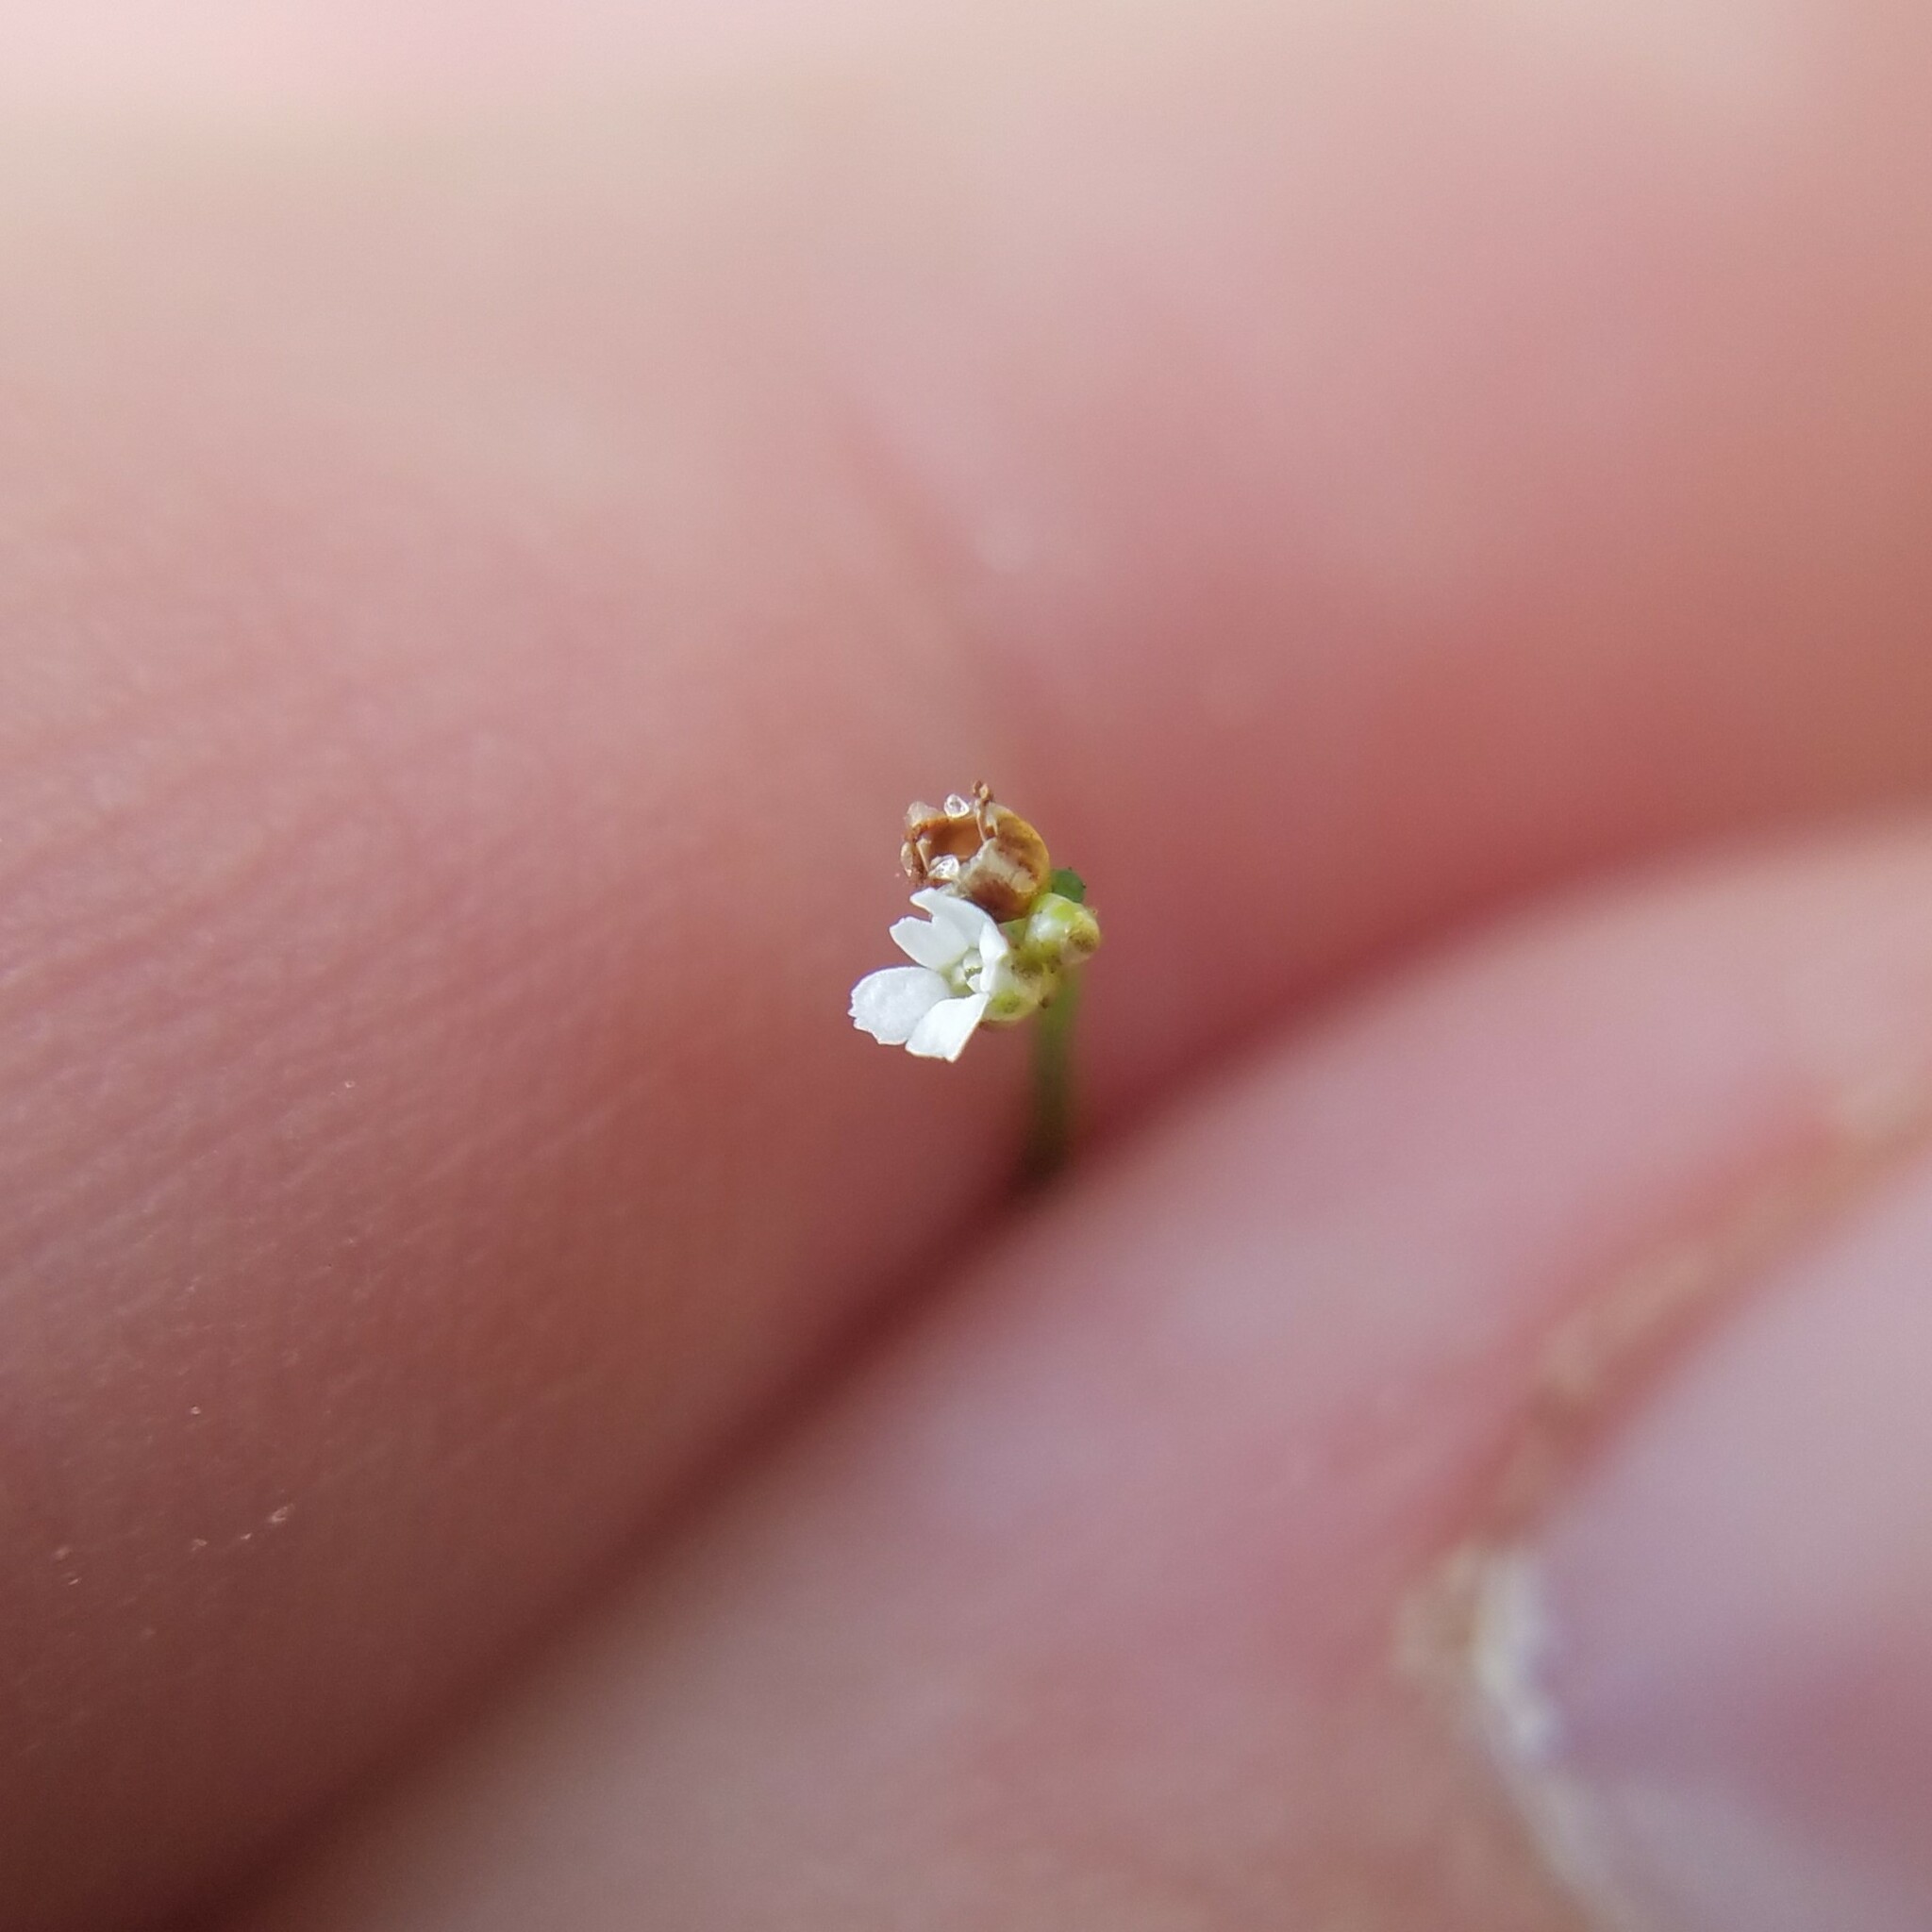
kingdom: Plantae
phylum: Tracheophyta
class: Magnoliopsida
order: Caryophyllales
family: Caryophyllaceae
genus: Stipulicida
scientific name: Stipulicida setacea
